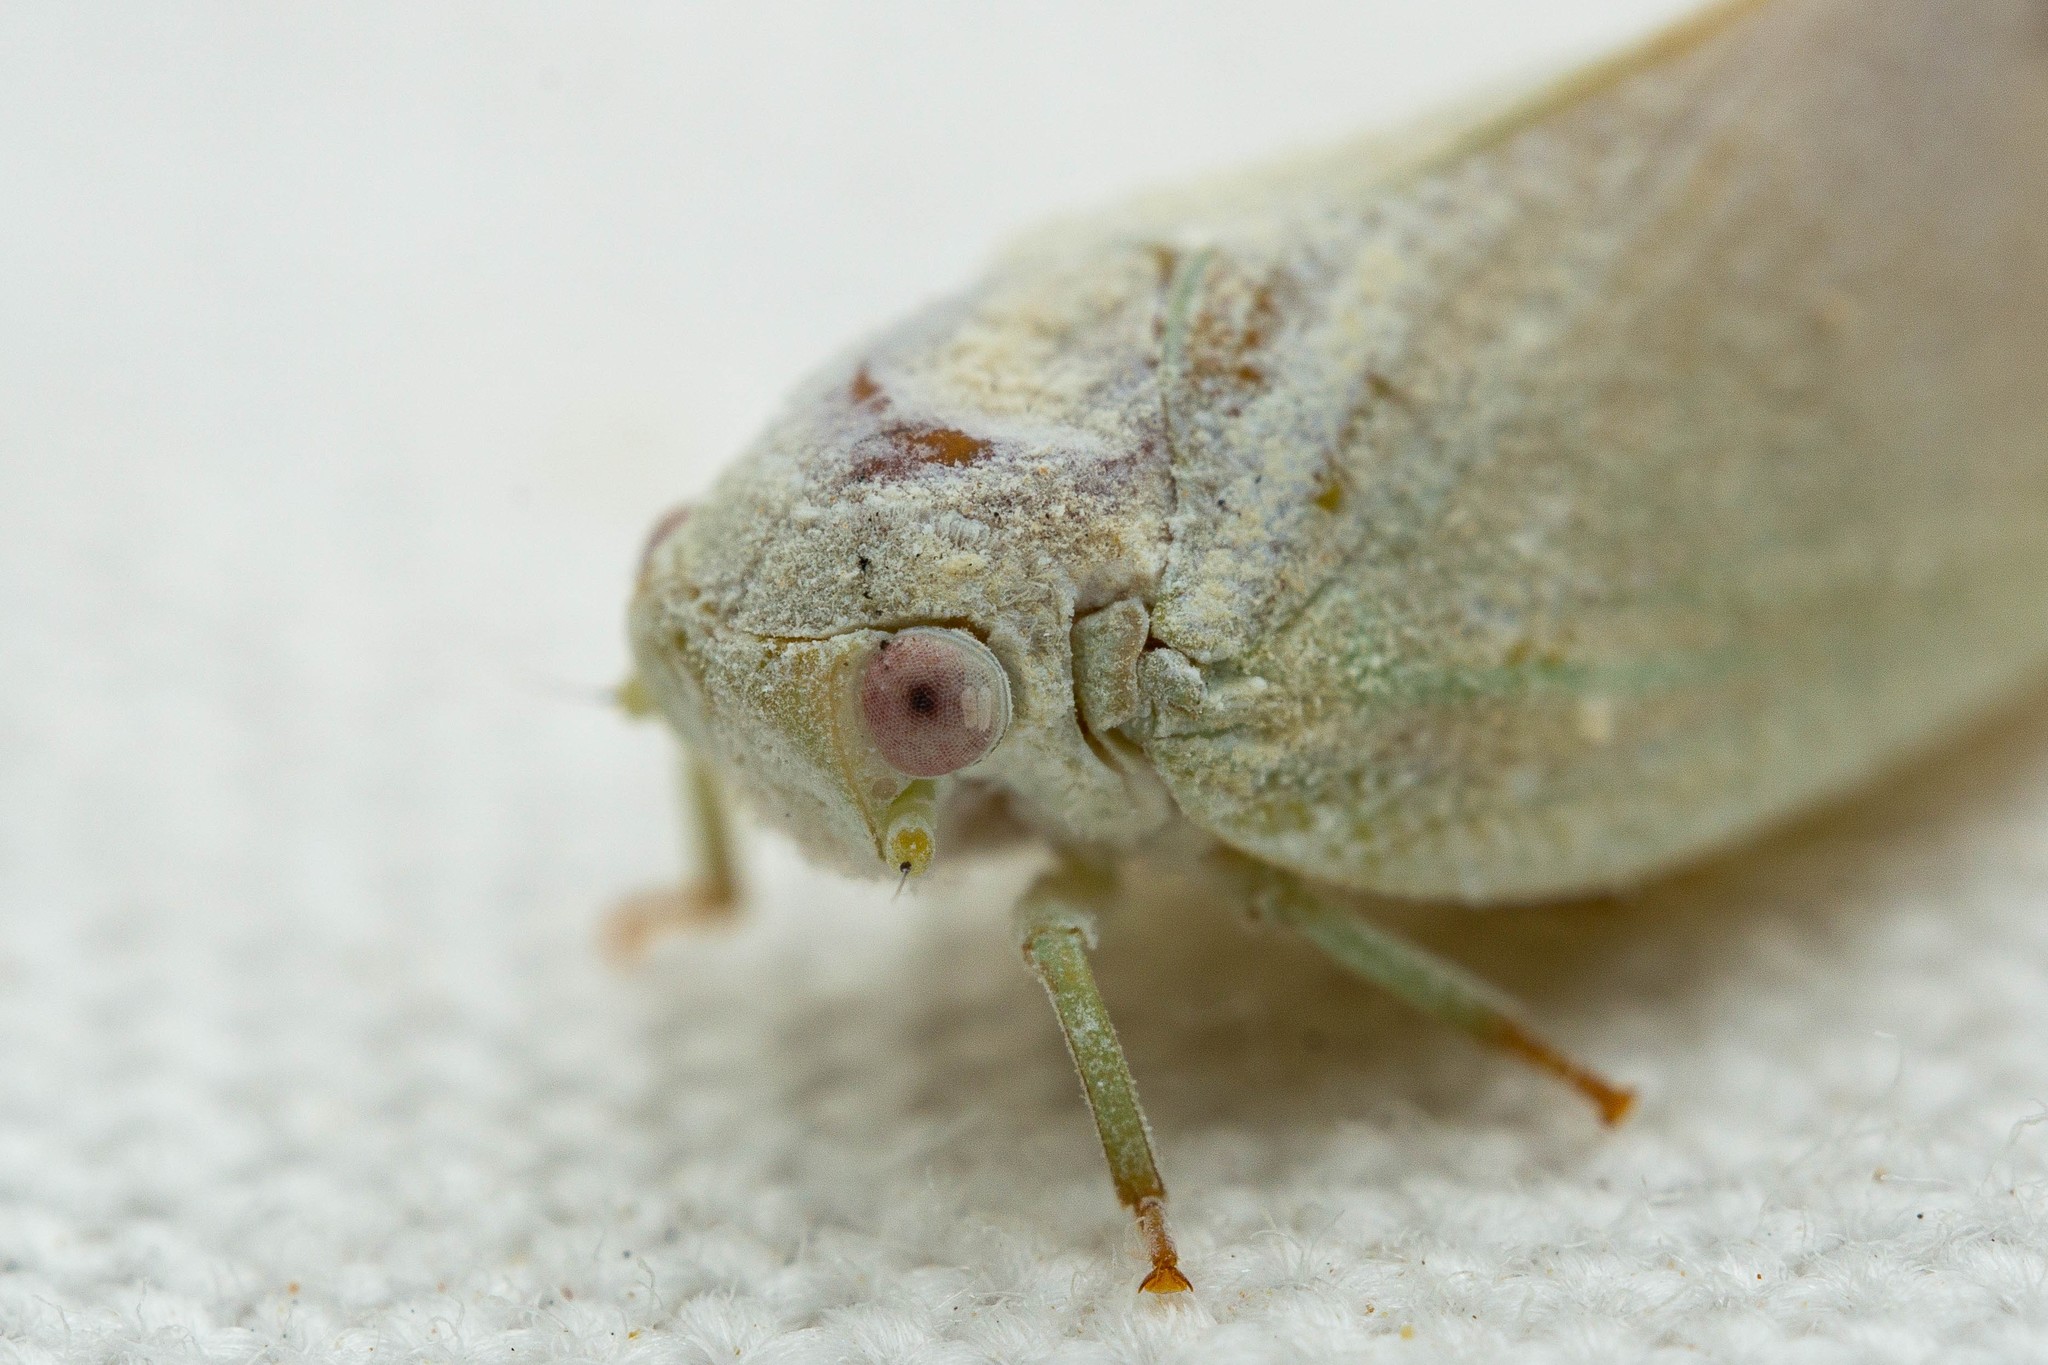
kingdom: Animalia
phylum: Arthropoda
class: Insecta
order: Hemiptera
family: Flatidae
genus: Flatormenis
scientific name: Flatormenis saucia
